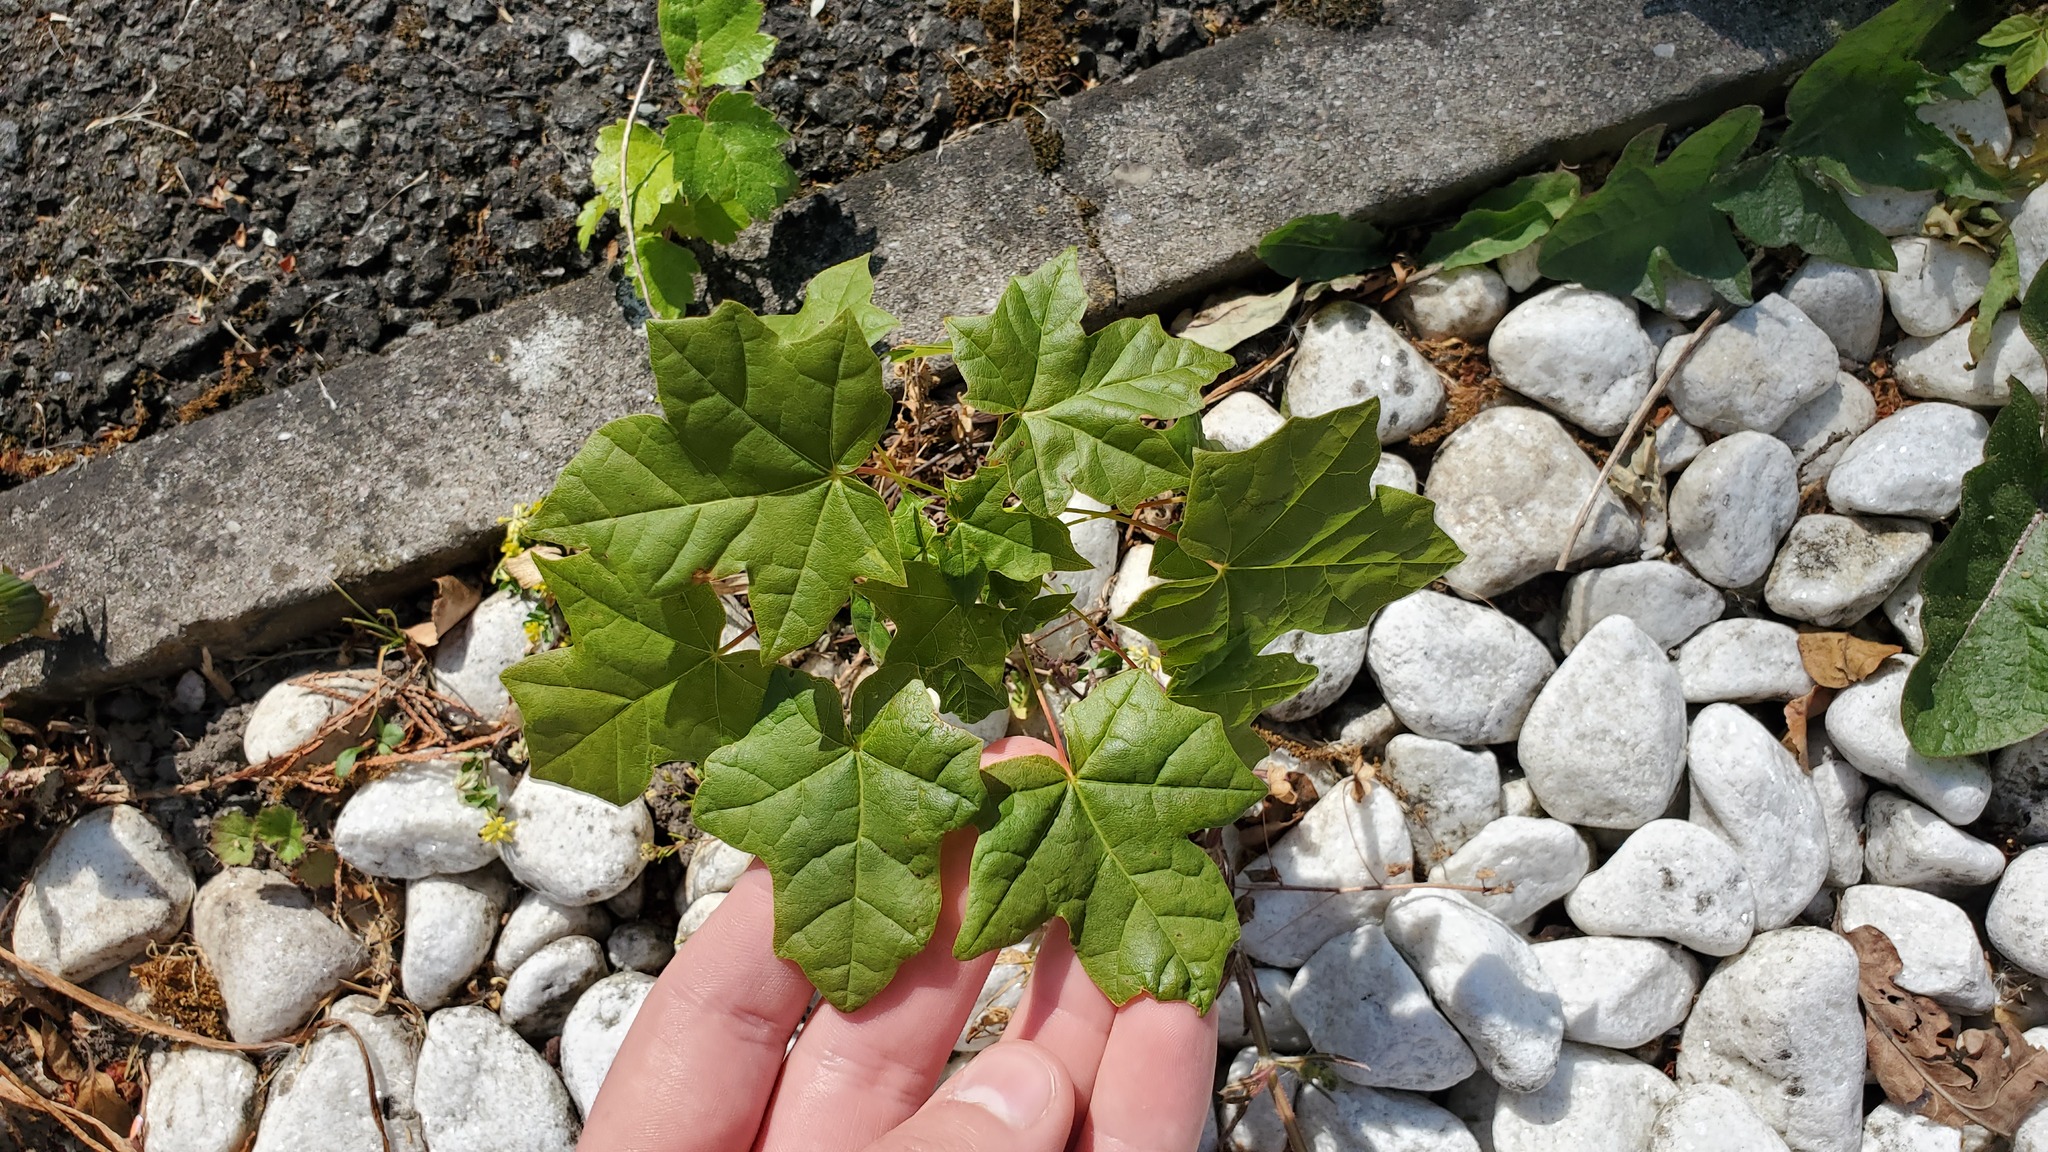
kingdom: Plantae
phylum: Tracheophyta
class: Magnoliopsida
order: Sapindales
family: Sapindaceae
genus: Acer
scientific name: Acer platanoides
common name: Norway maple
